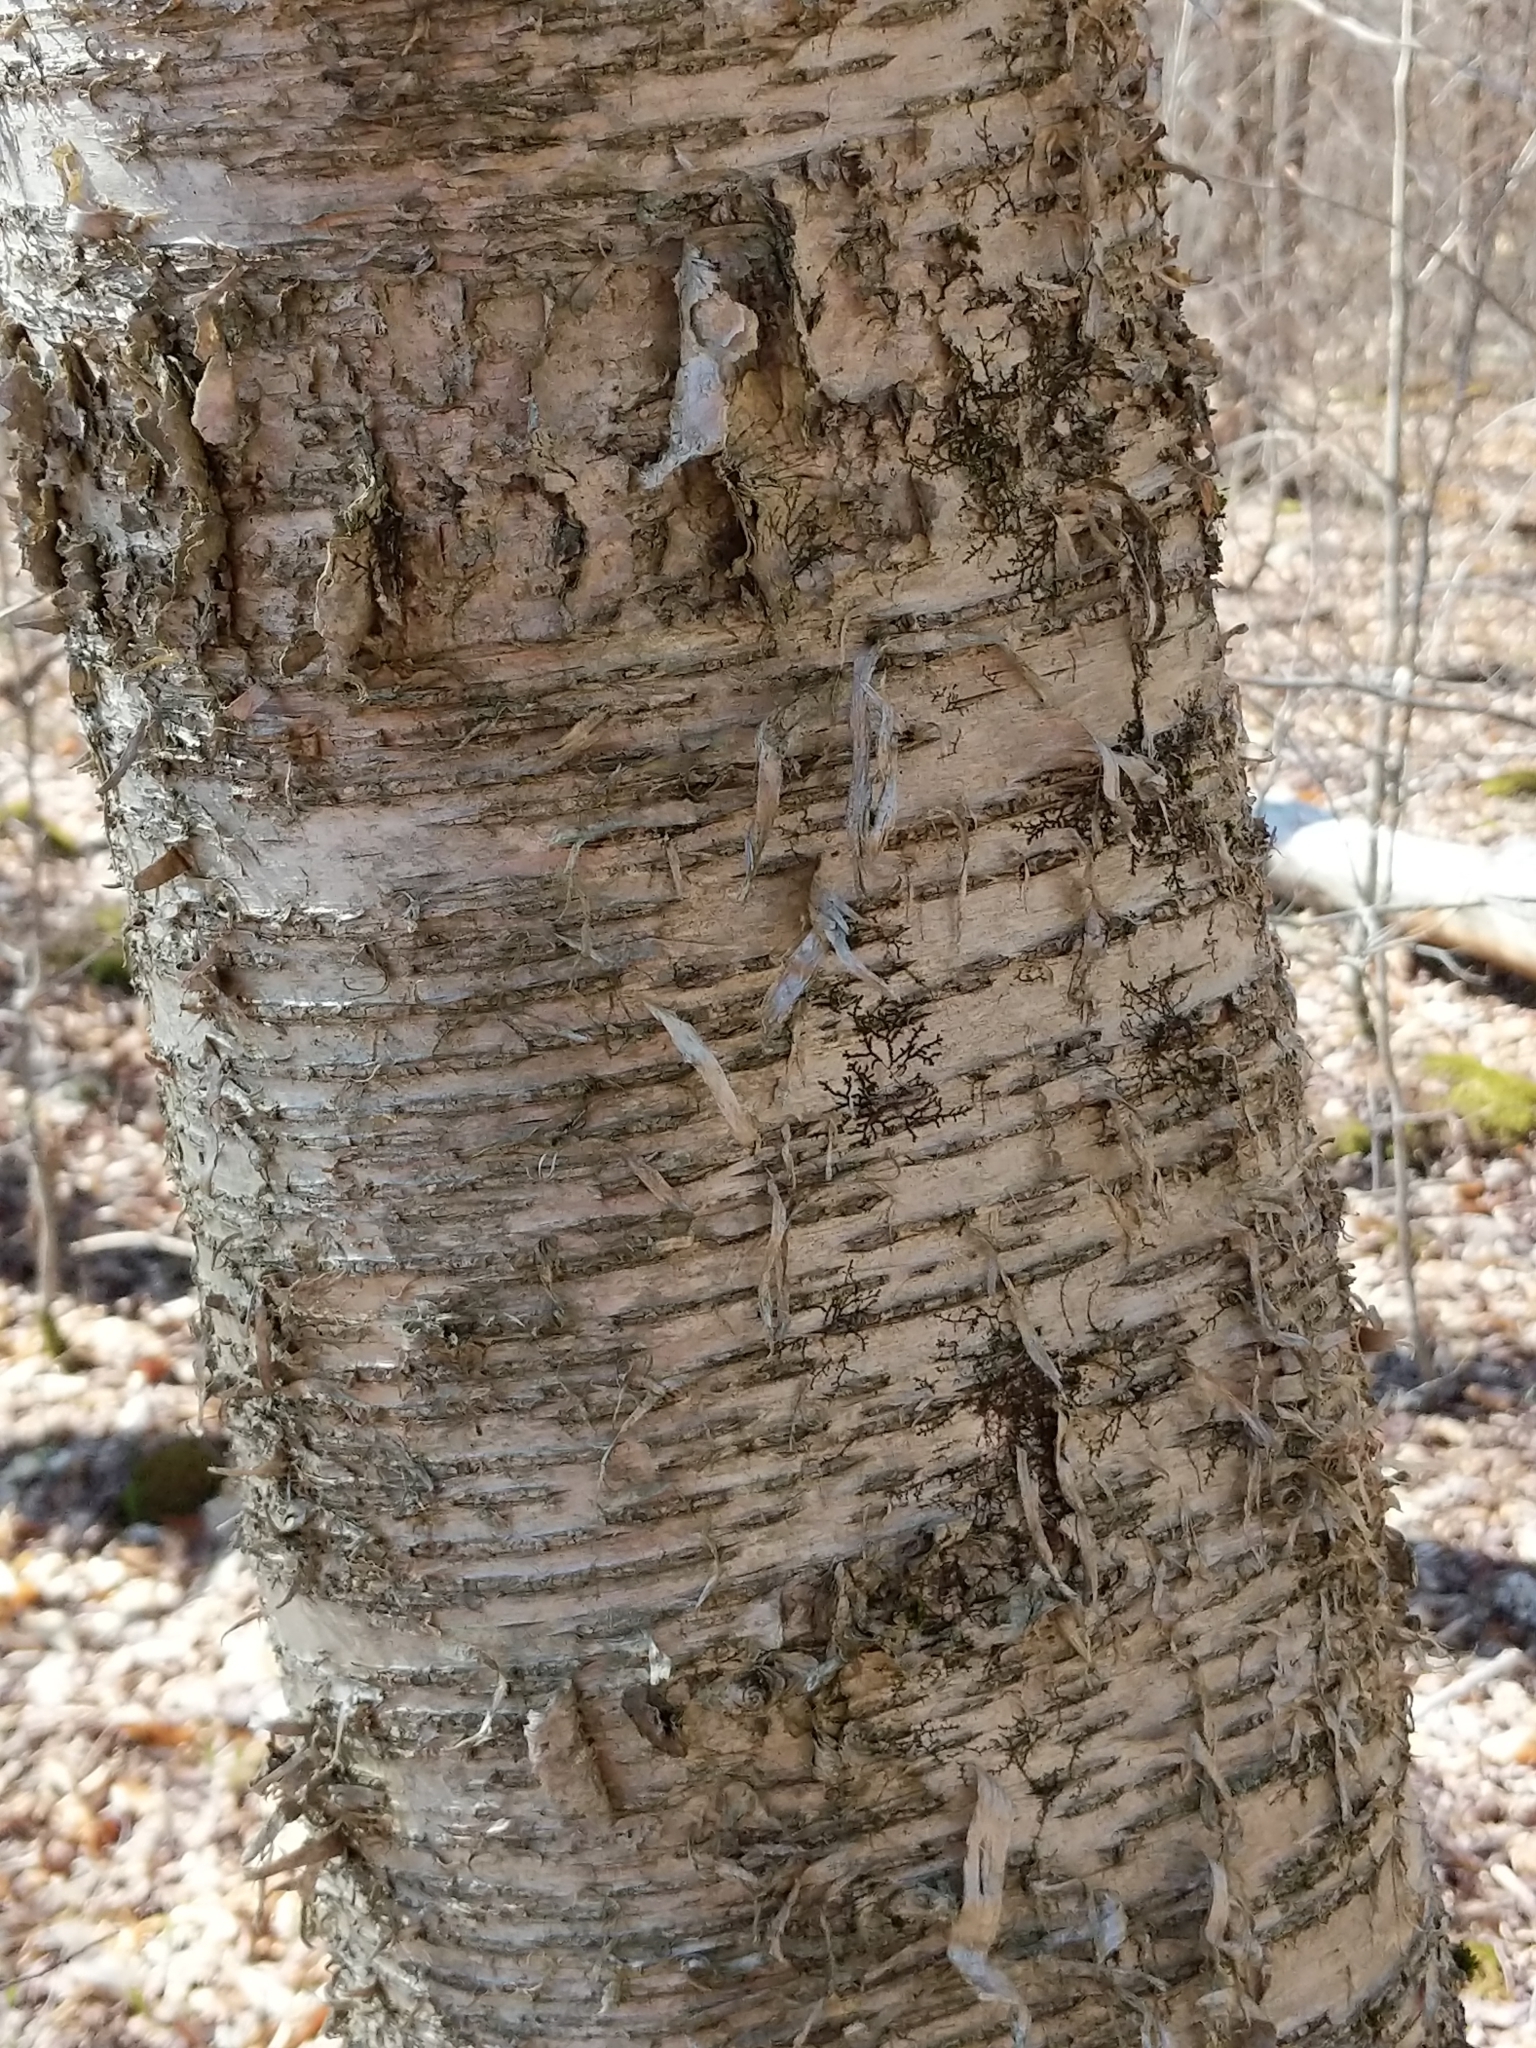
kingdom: Plantae
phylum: Tracheophyta
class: Magnoliopsida
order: Fagales
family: Betulaceae
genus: Betula
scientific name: Betula alleghaniensis
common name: Yellow birch
